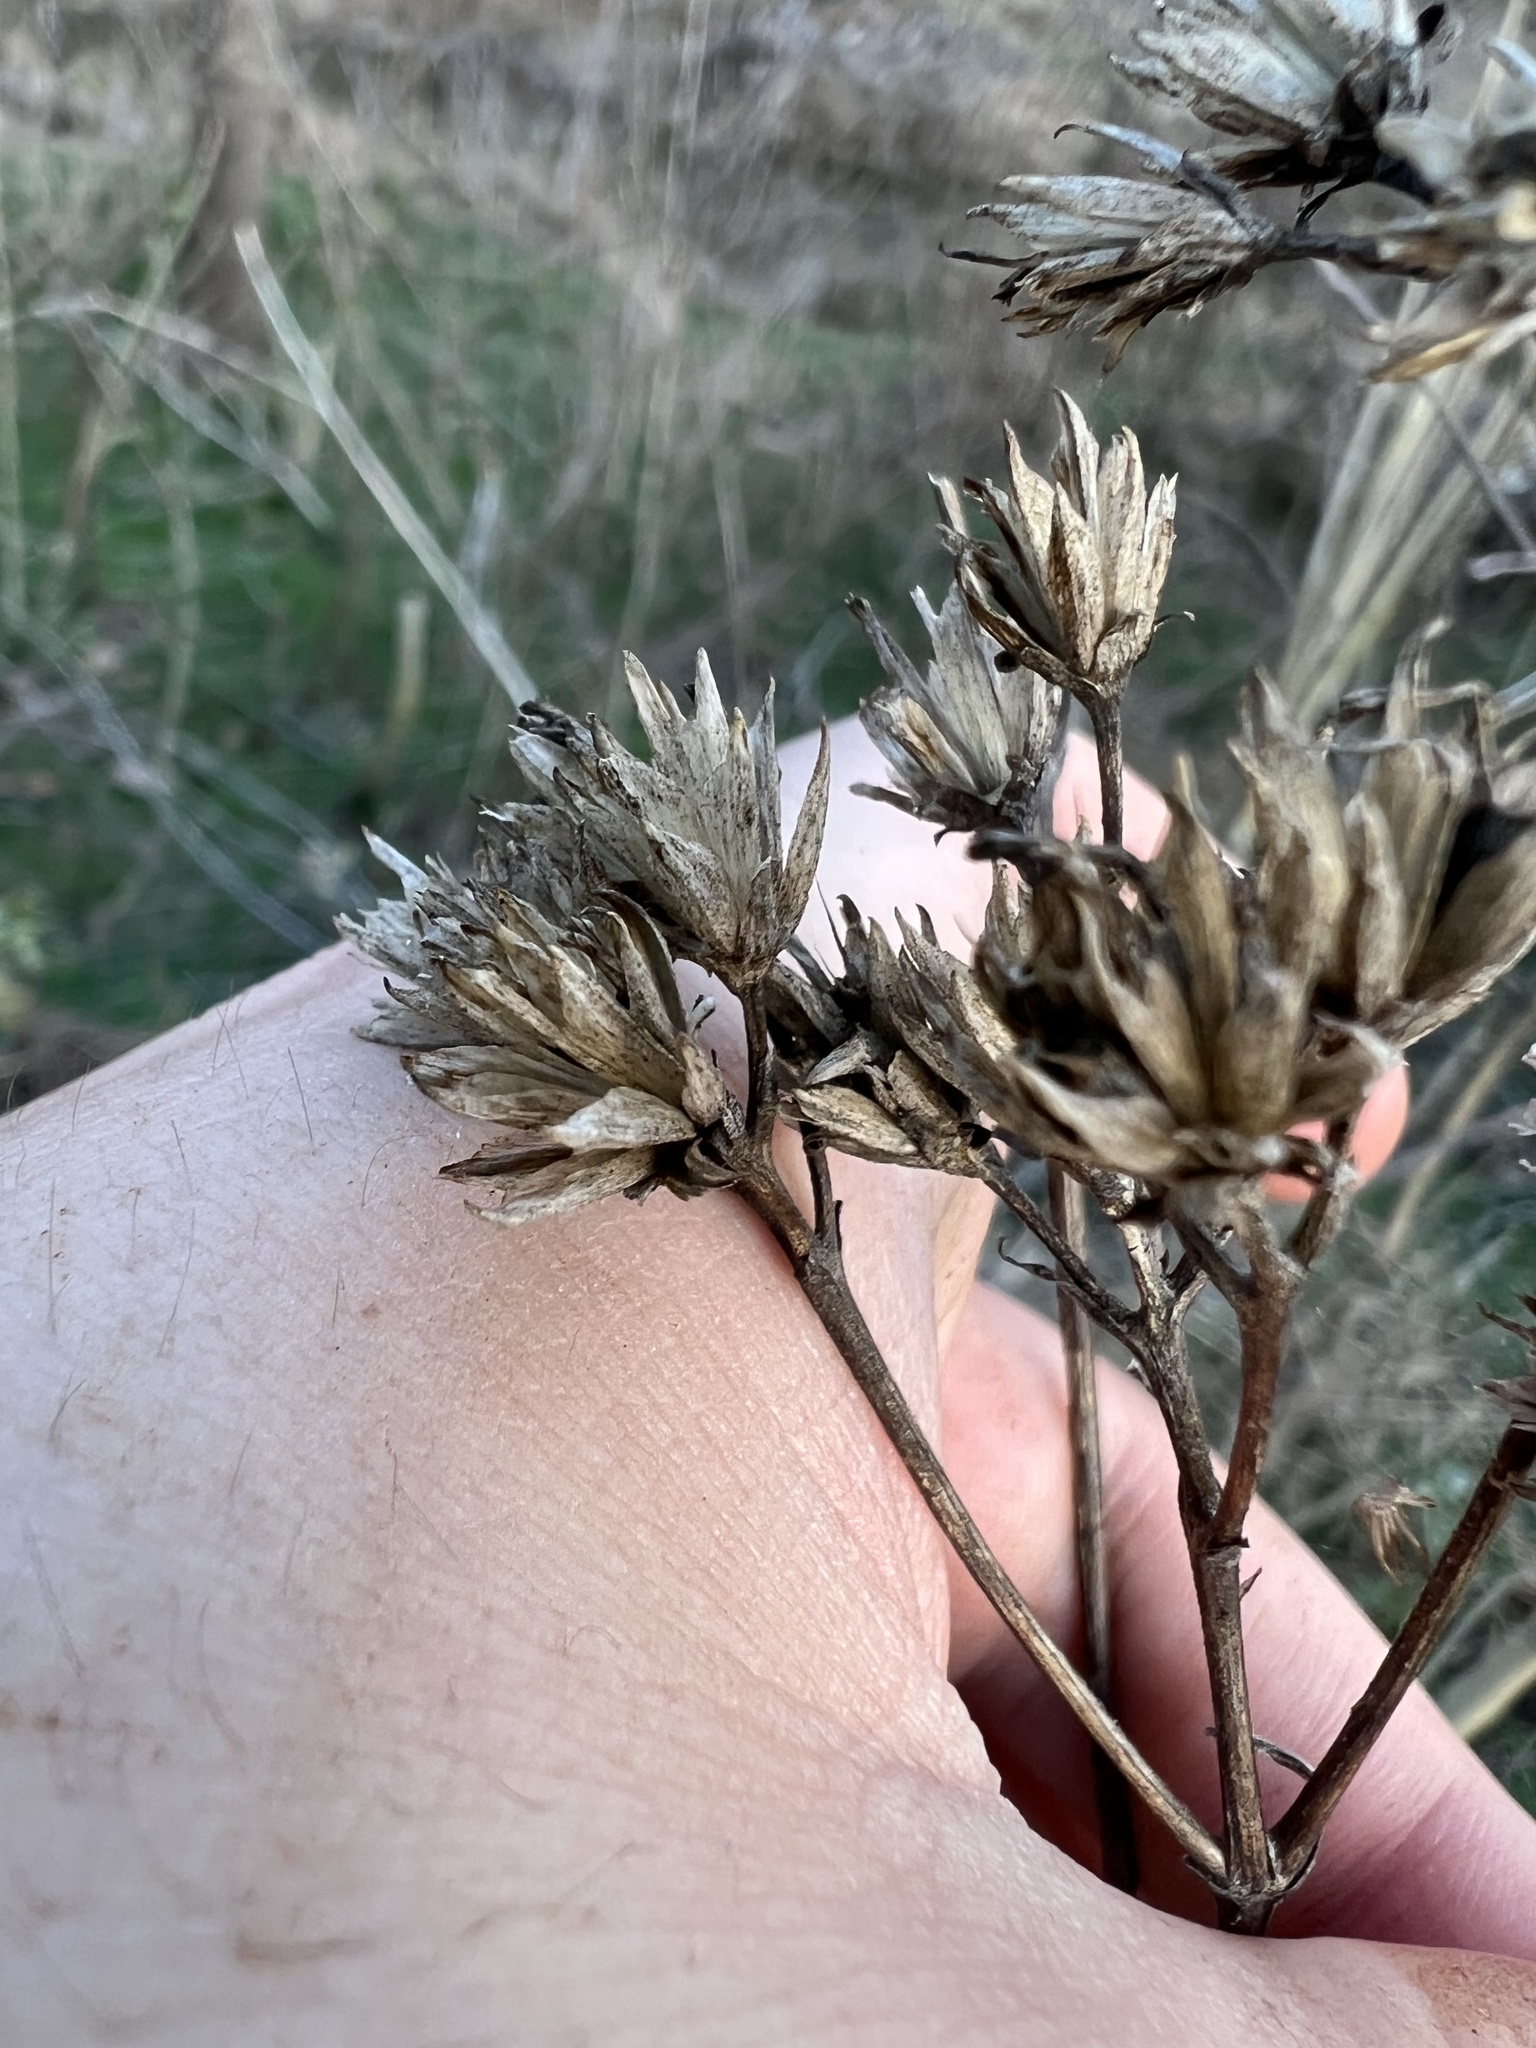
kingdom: Plantae
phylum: Tracheophyta
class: Magnoliopsida
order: Asterales
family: Asteraceae
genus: Verbesina
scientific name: Verbesina occidentalis
